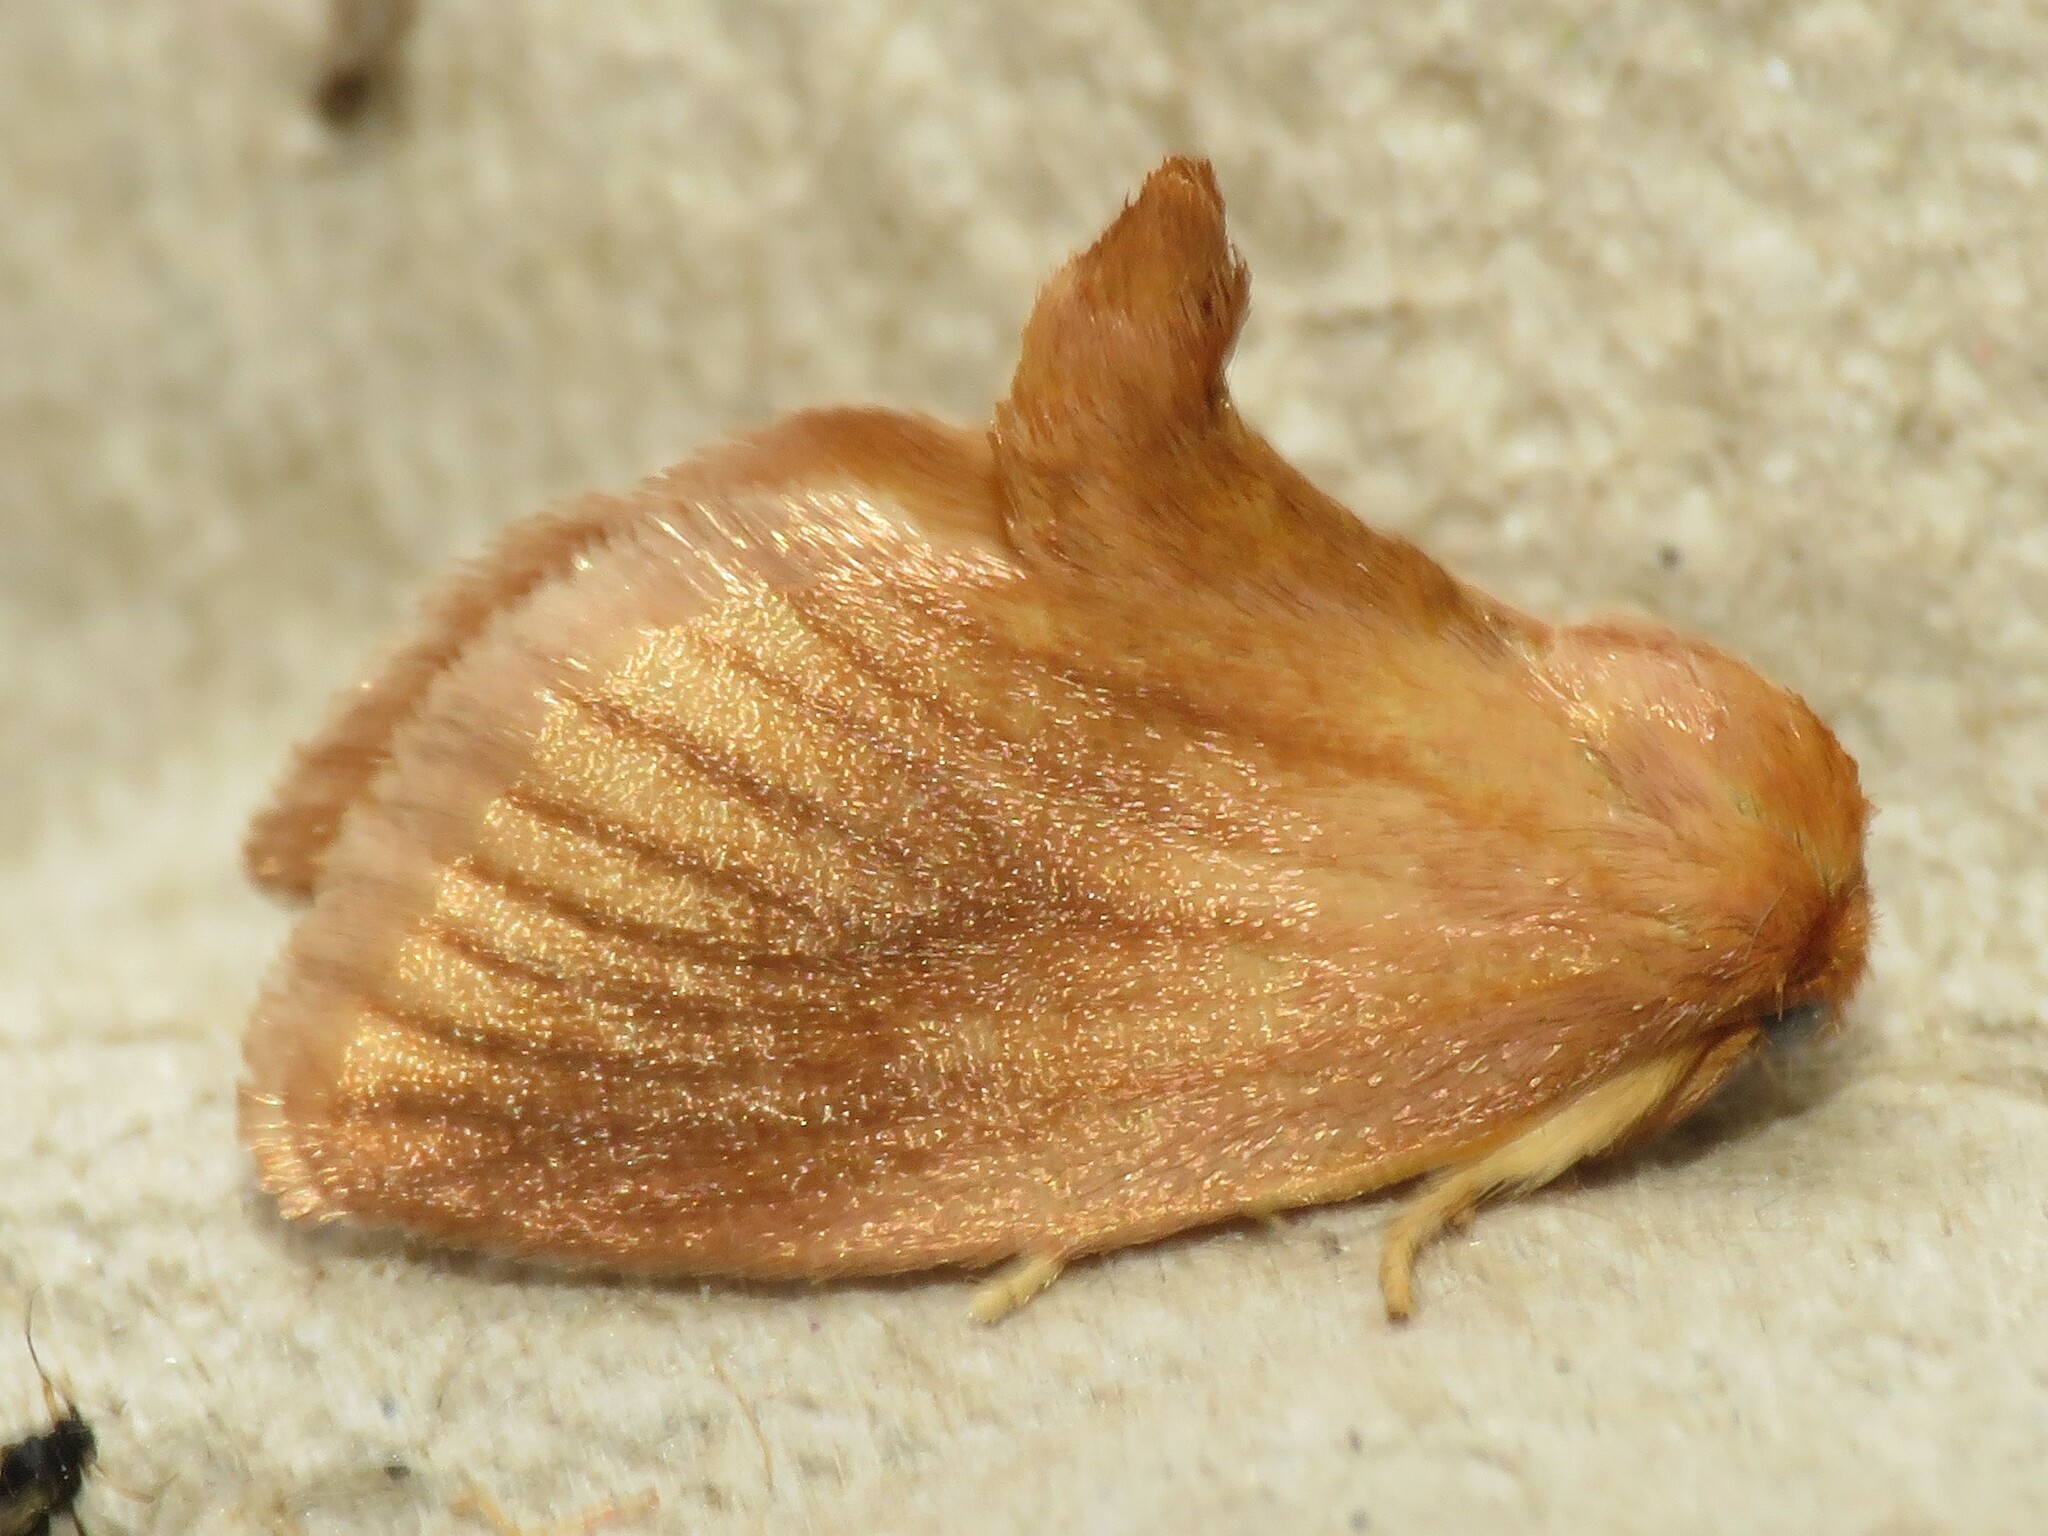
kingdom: Animalia
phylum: Arthropoda
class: Insecta
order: Lepidoptera
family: Limacodidae
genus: Tortricidia
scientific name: Tortricidia testacea
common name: Early button slug moth
